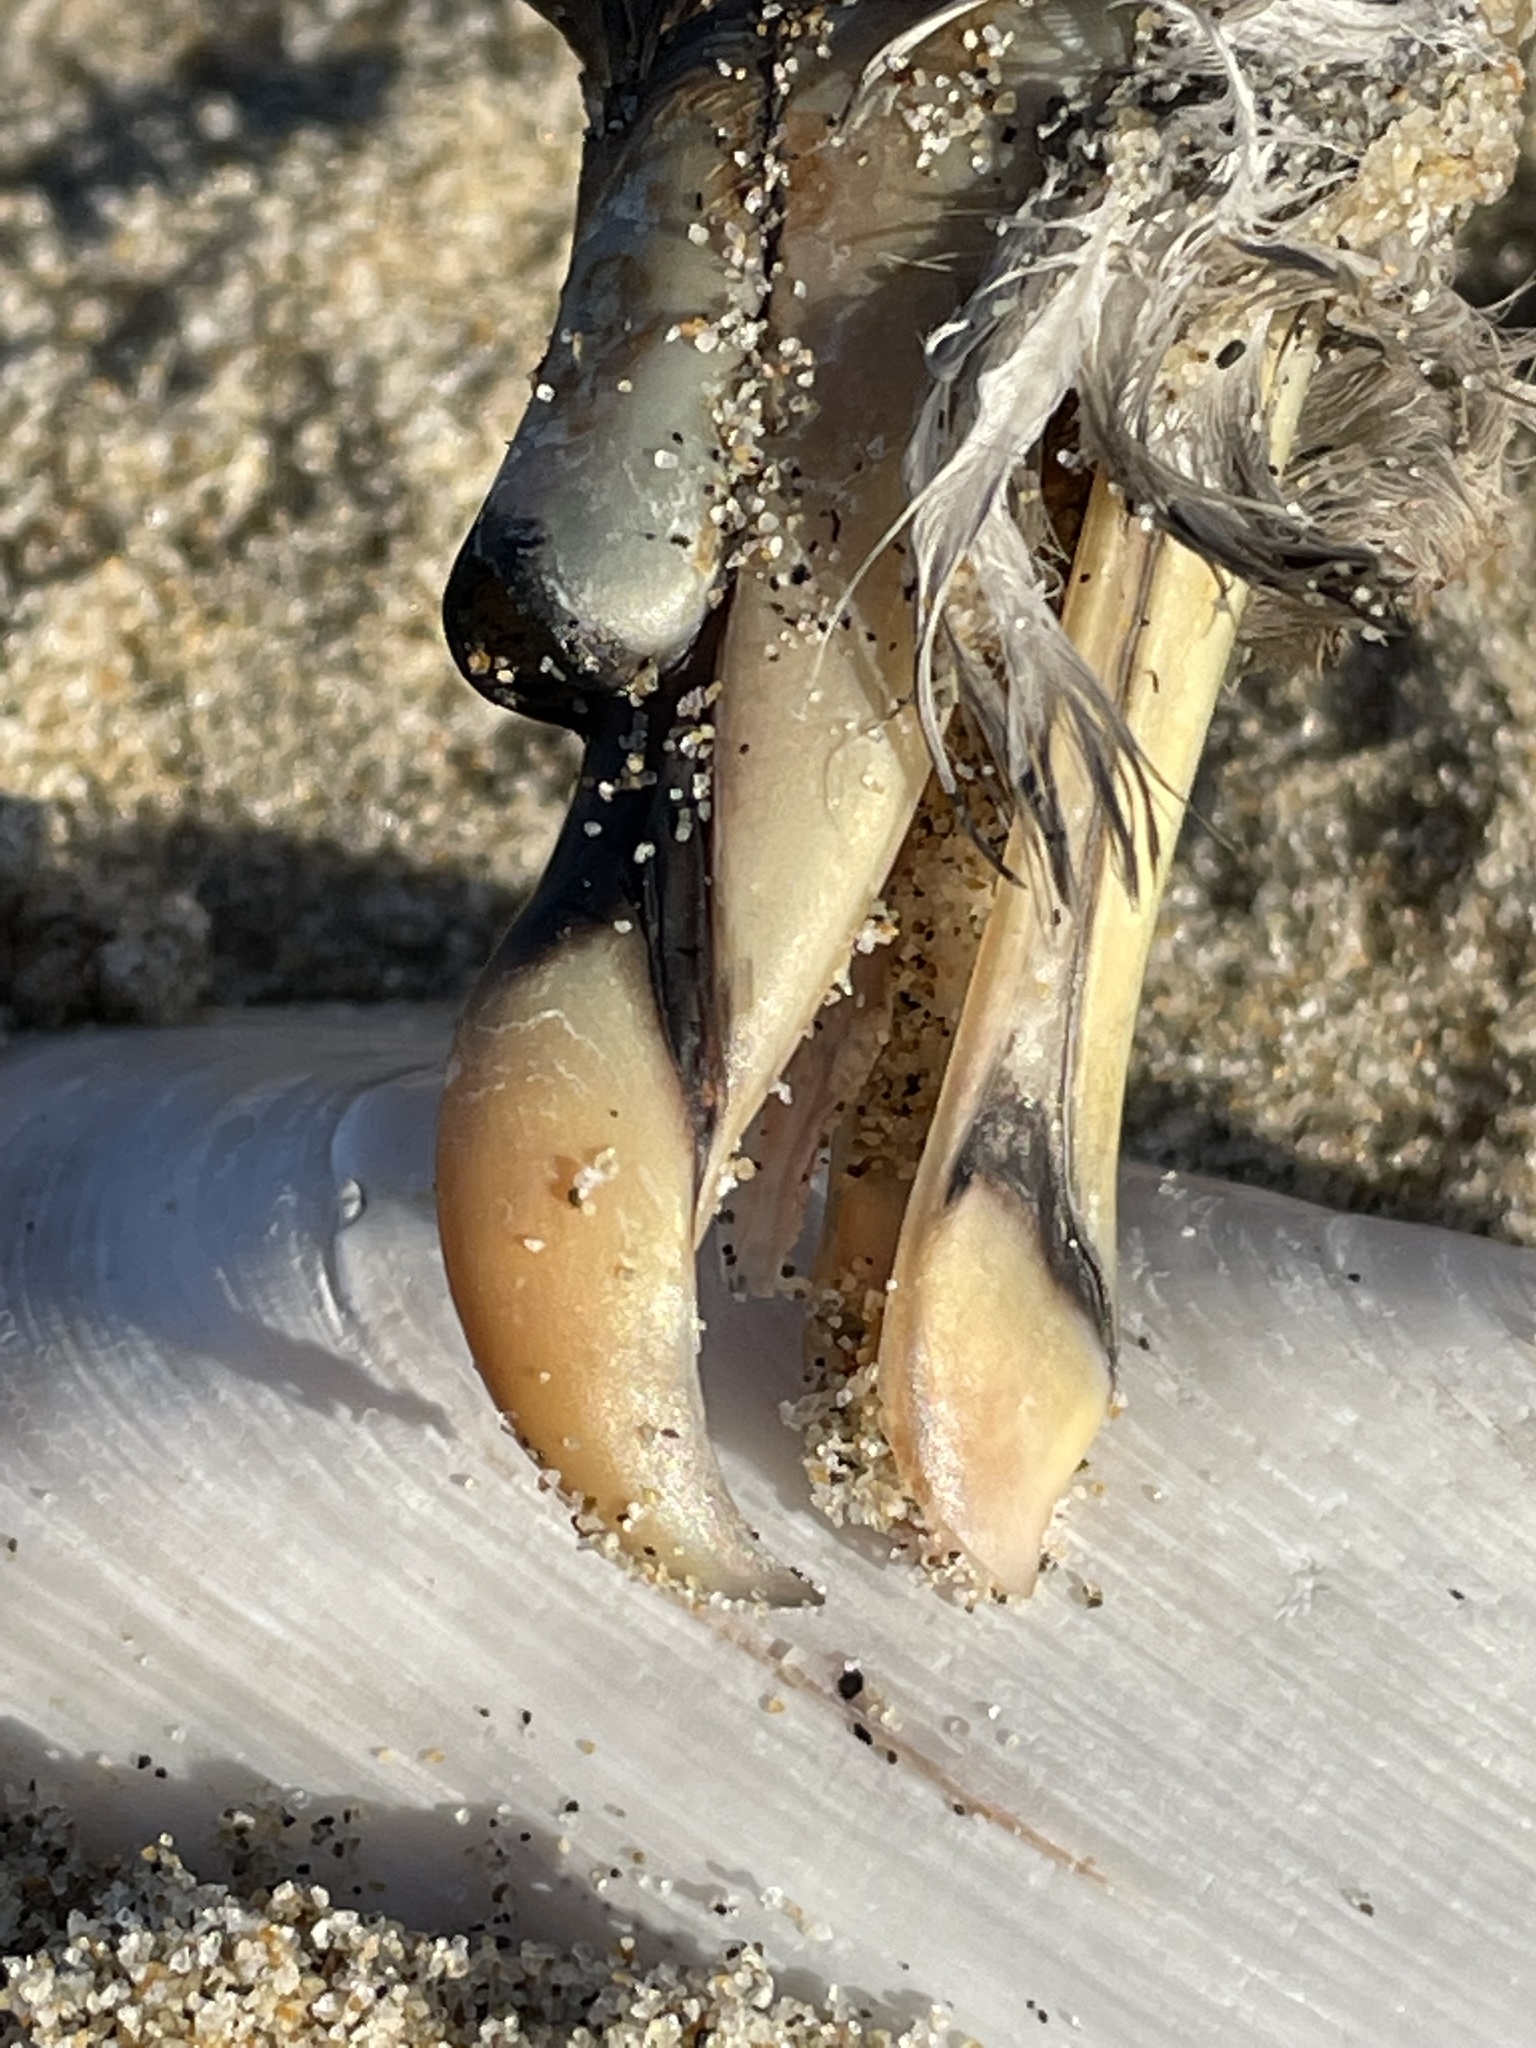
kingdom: Animalia
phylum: Chordata
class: Aves
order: Procellariiformes
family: Procellariidae
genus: Fulmarus
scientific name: Fulmarus glacialis
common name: Northern fulmar
